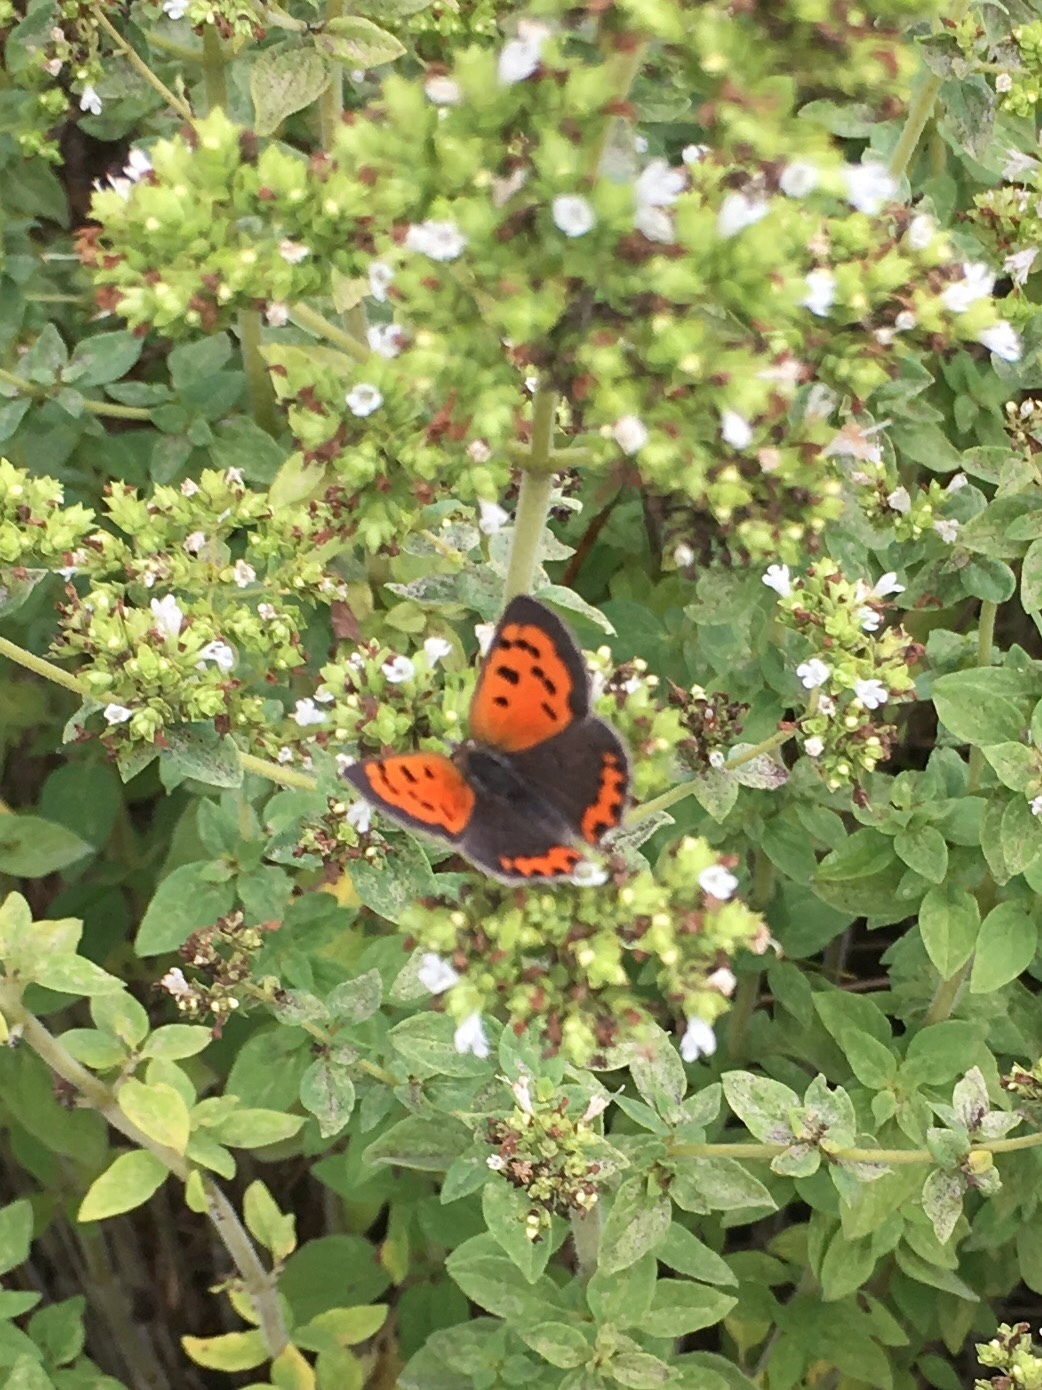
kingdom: Animalia
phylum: Arthropoda
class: Insecta
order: Lepidoptera
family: Lycaenidae
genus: Lycaena
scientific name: Lycaena hypophlaeas
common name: American copper
